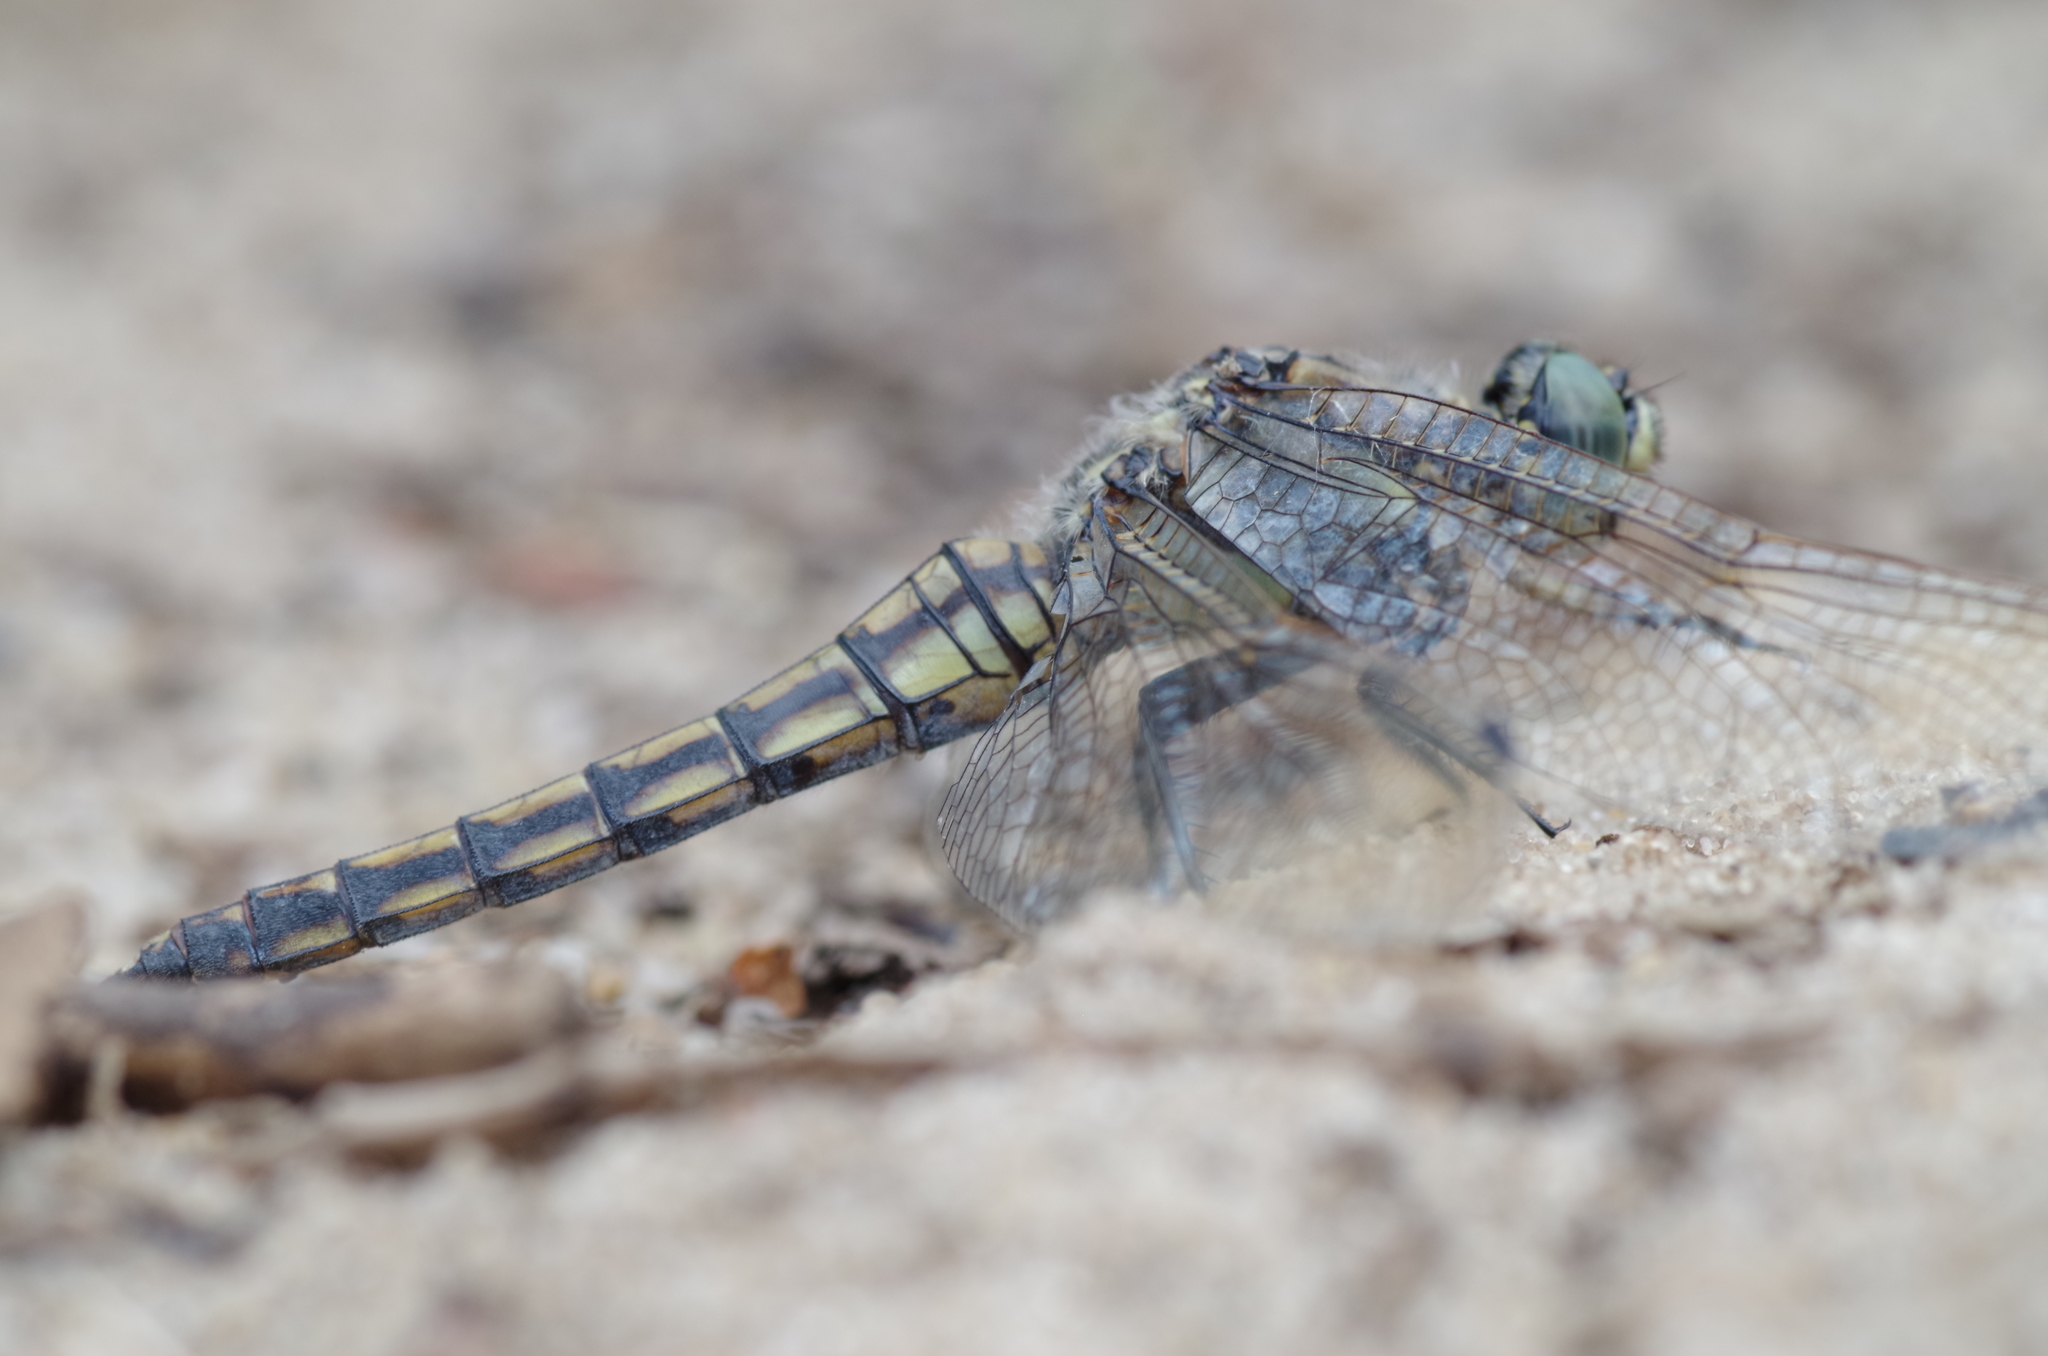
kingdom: Animalia
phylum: Arthropoda
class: Insecta
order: Odonata
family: Libellulidae
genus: Orthetrum
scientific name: Orthetrum cancellatum
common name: Black-tailed skimmer
